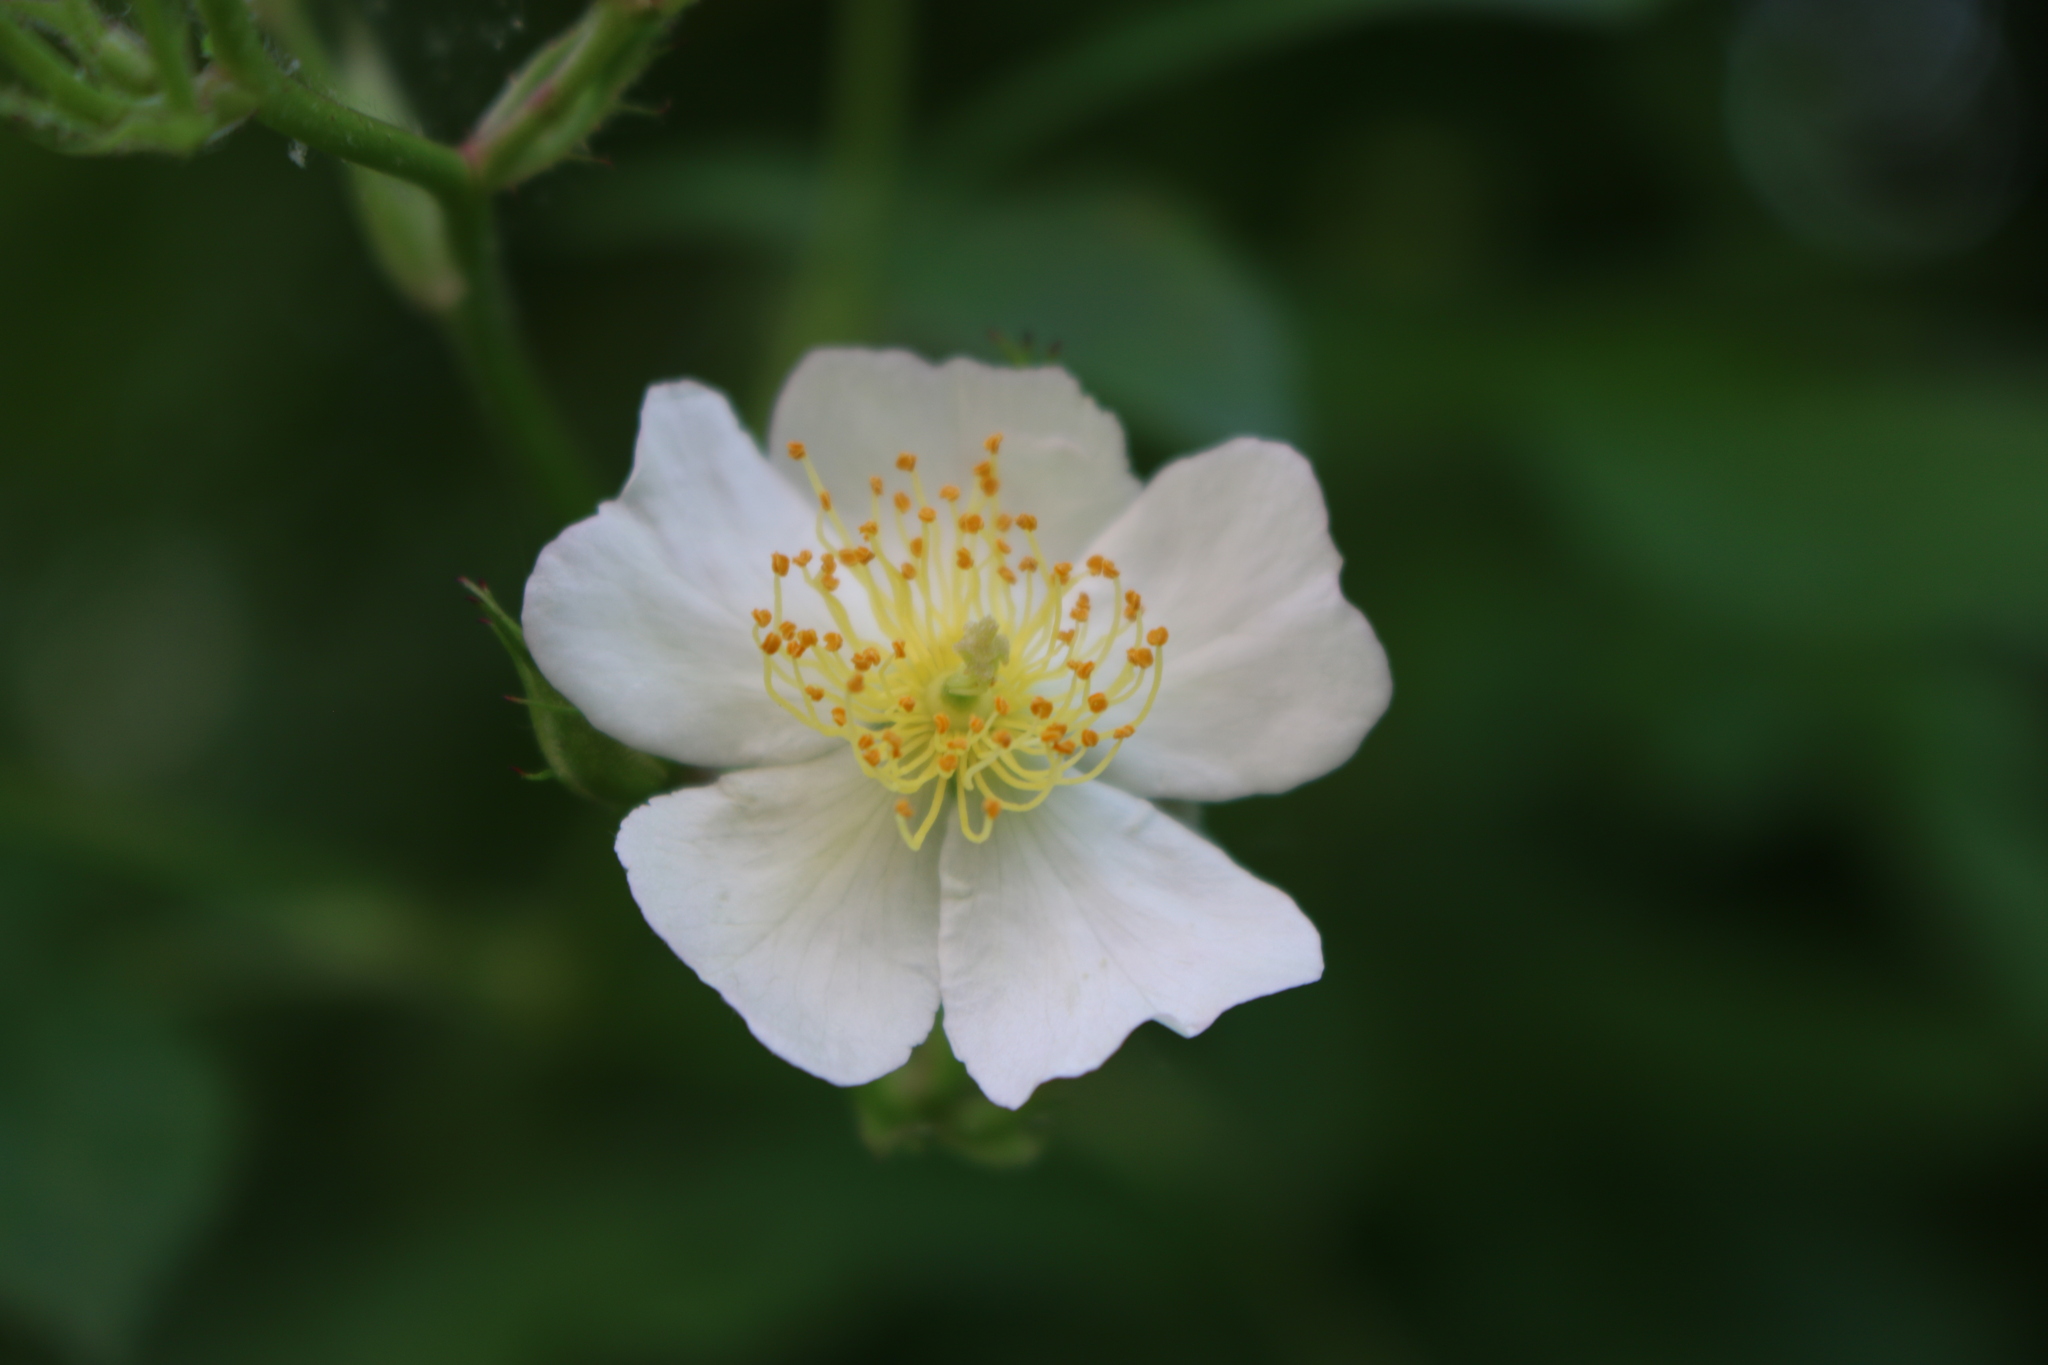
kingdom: Plantae
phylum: Tracheophyta
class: Magnoliopsida
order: Rosales
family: Rosaceae
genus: Rosa
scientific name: Rosa multiflora
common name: Multiflora rose
